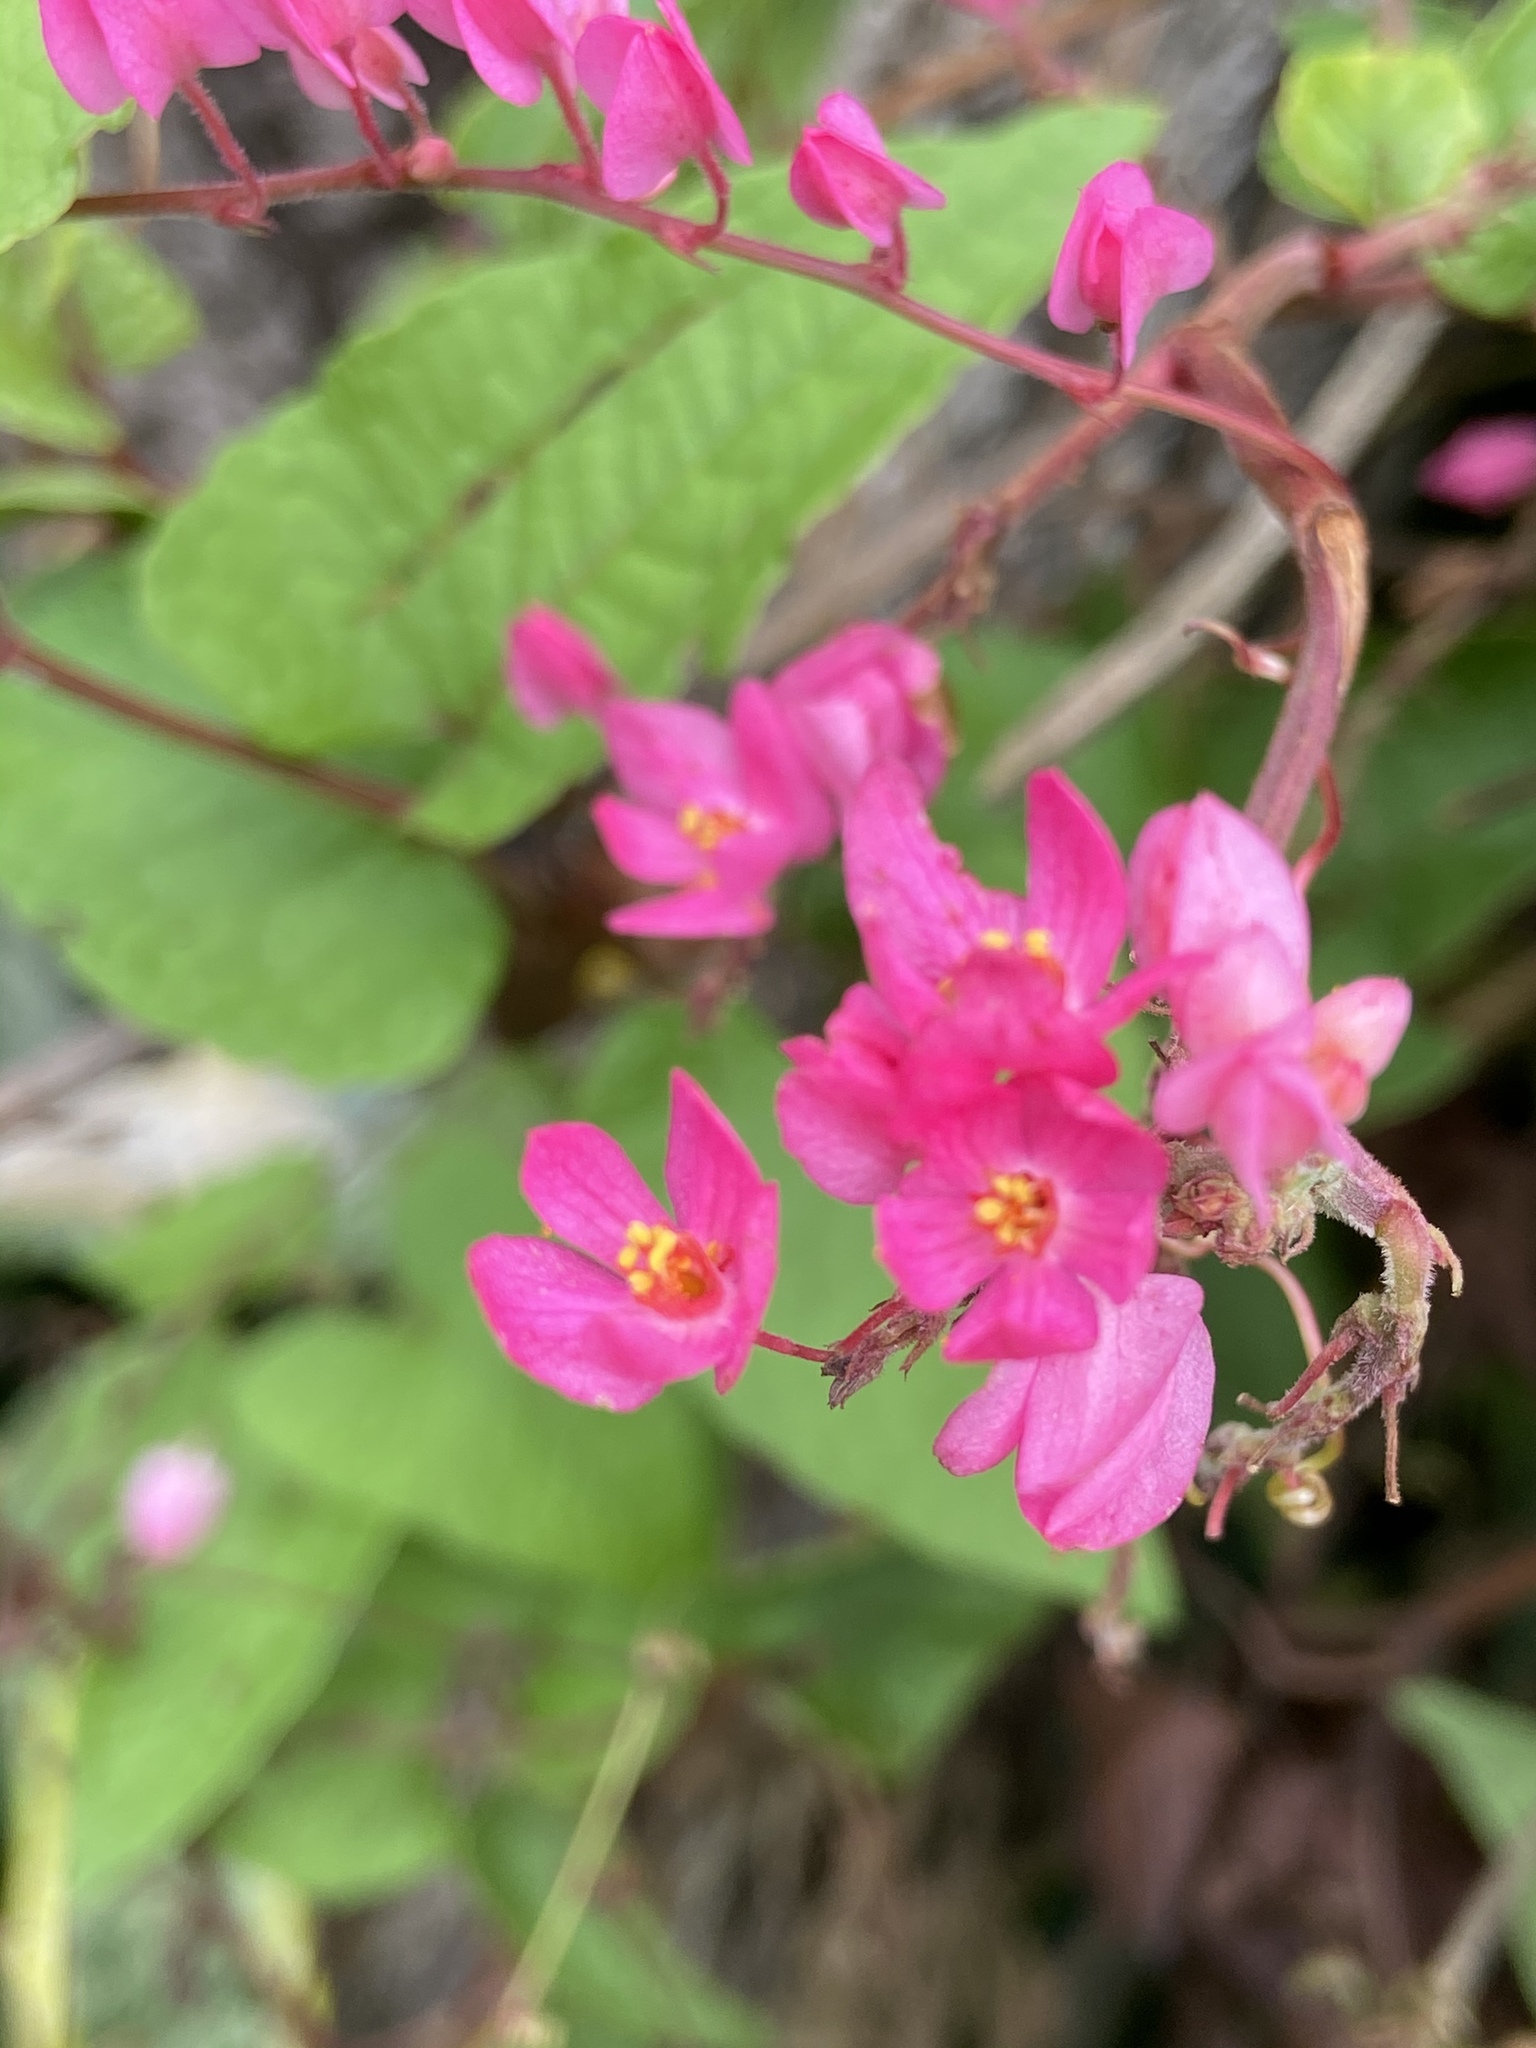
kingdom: Plantae
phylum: Tracheophyta
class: Magnoliopsida
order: Caryophyllales
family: Polygonaceae
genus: Antigonon
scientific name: Antigonon leptopus
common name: Coral vine
